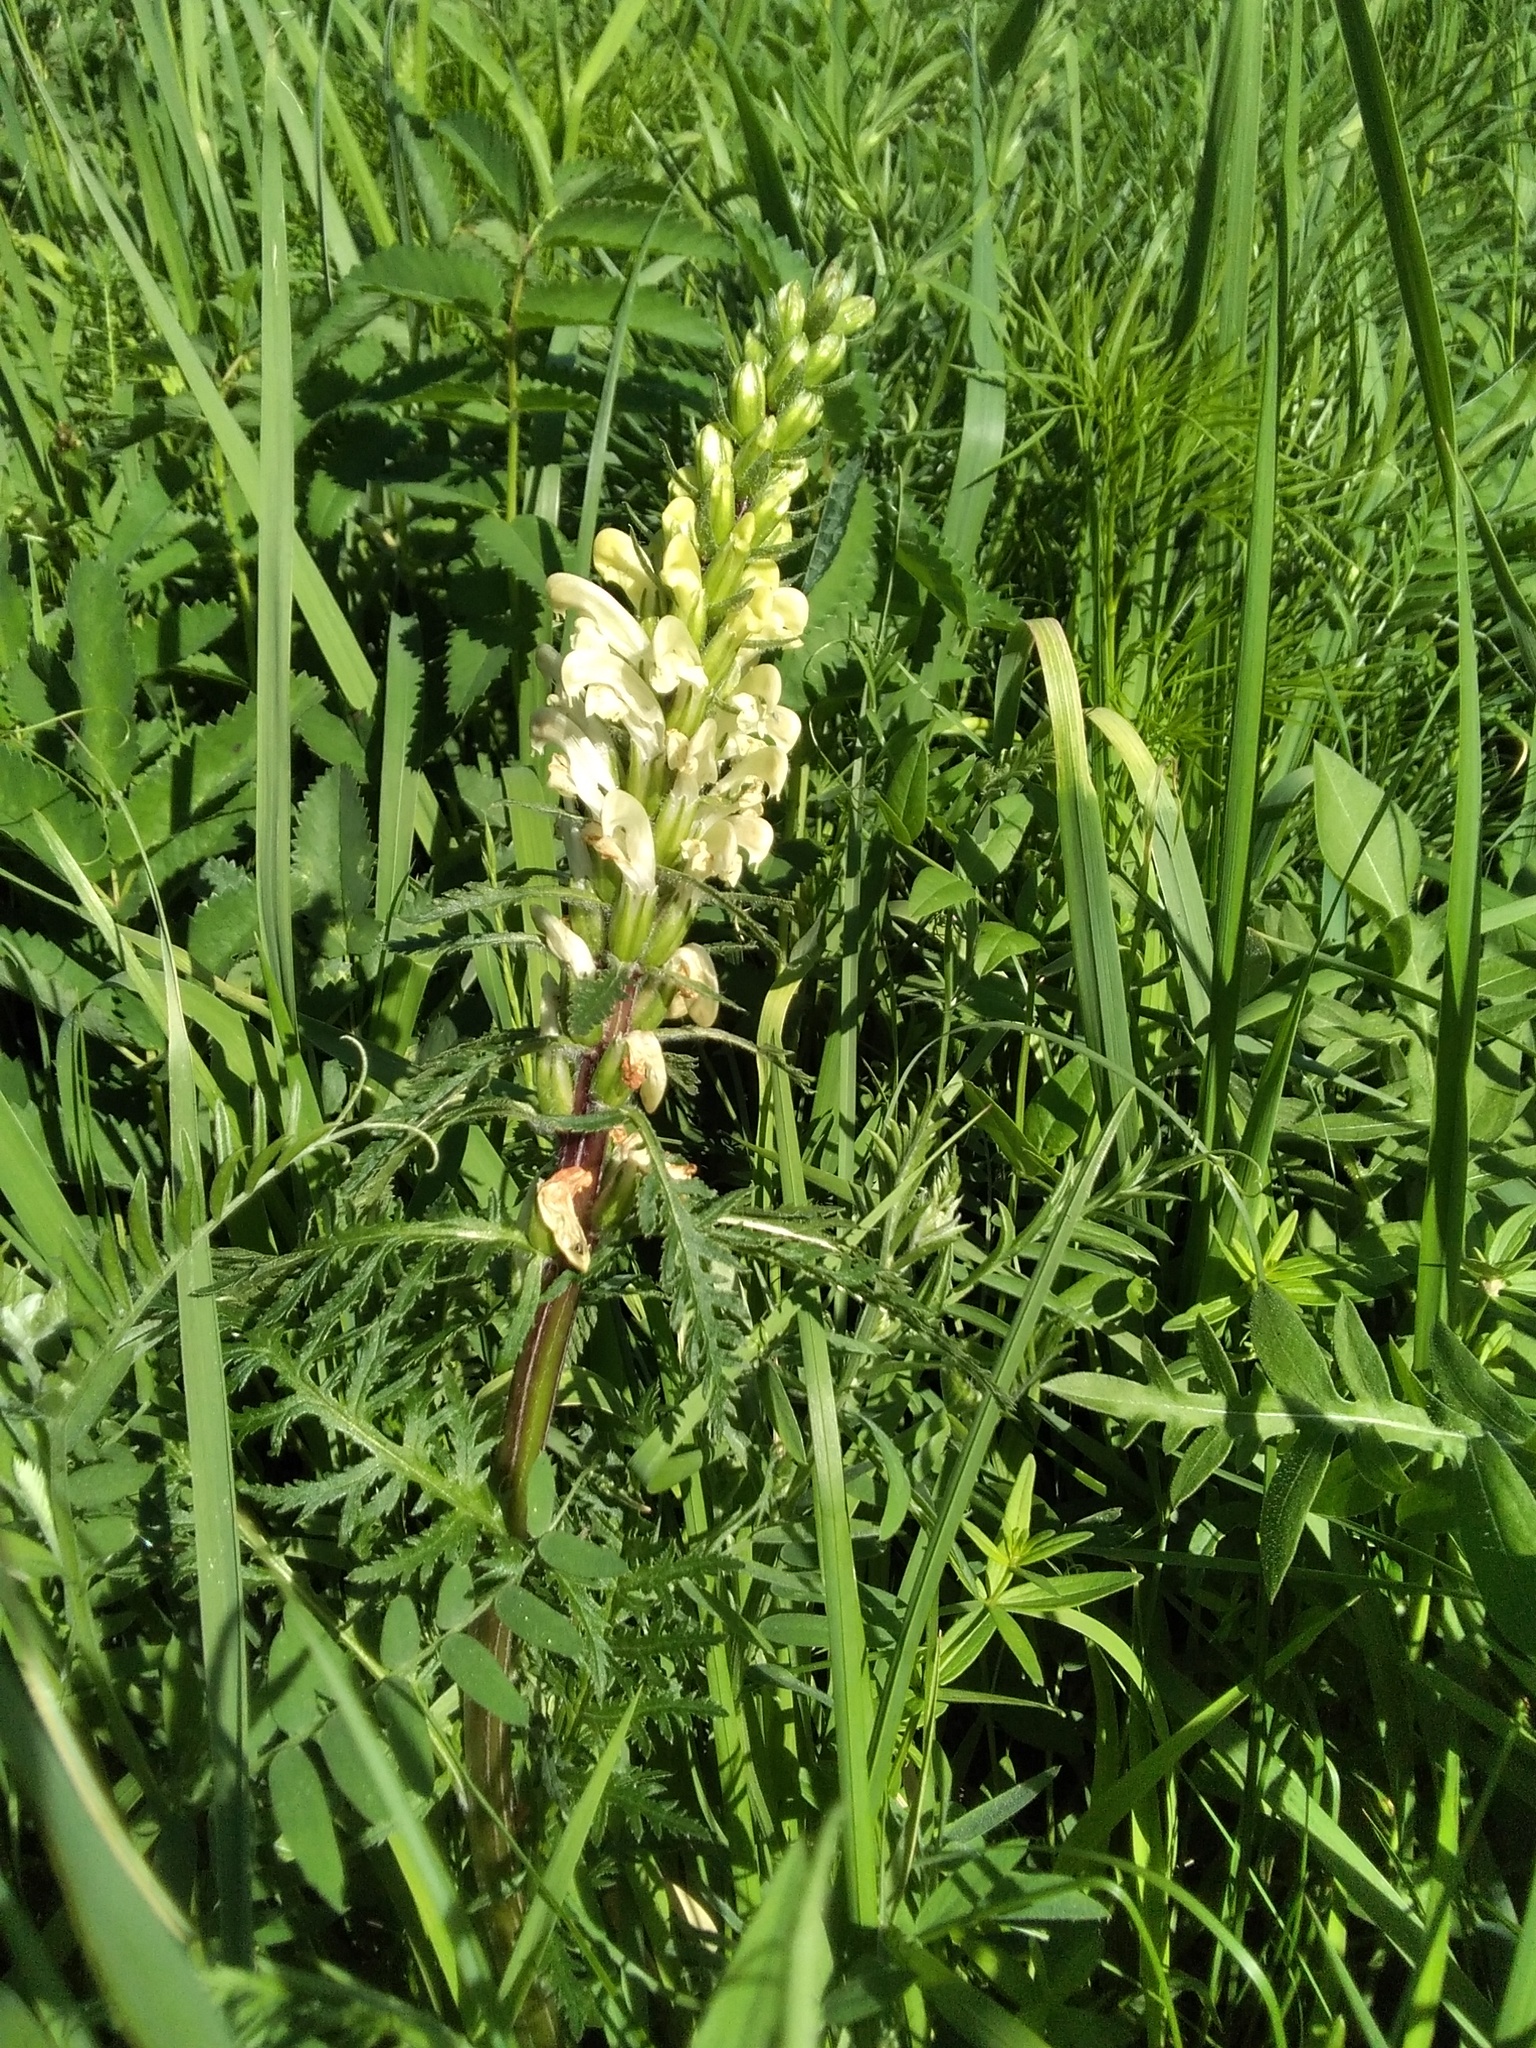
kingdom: Plantae
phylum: Tracheophyta
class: Magnoliopsida
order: Lamiales
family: Orobanchaceae
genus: Pedicularis
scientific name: Pedicularis sibirica
